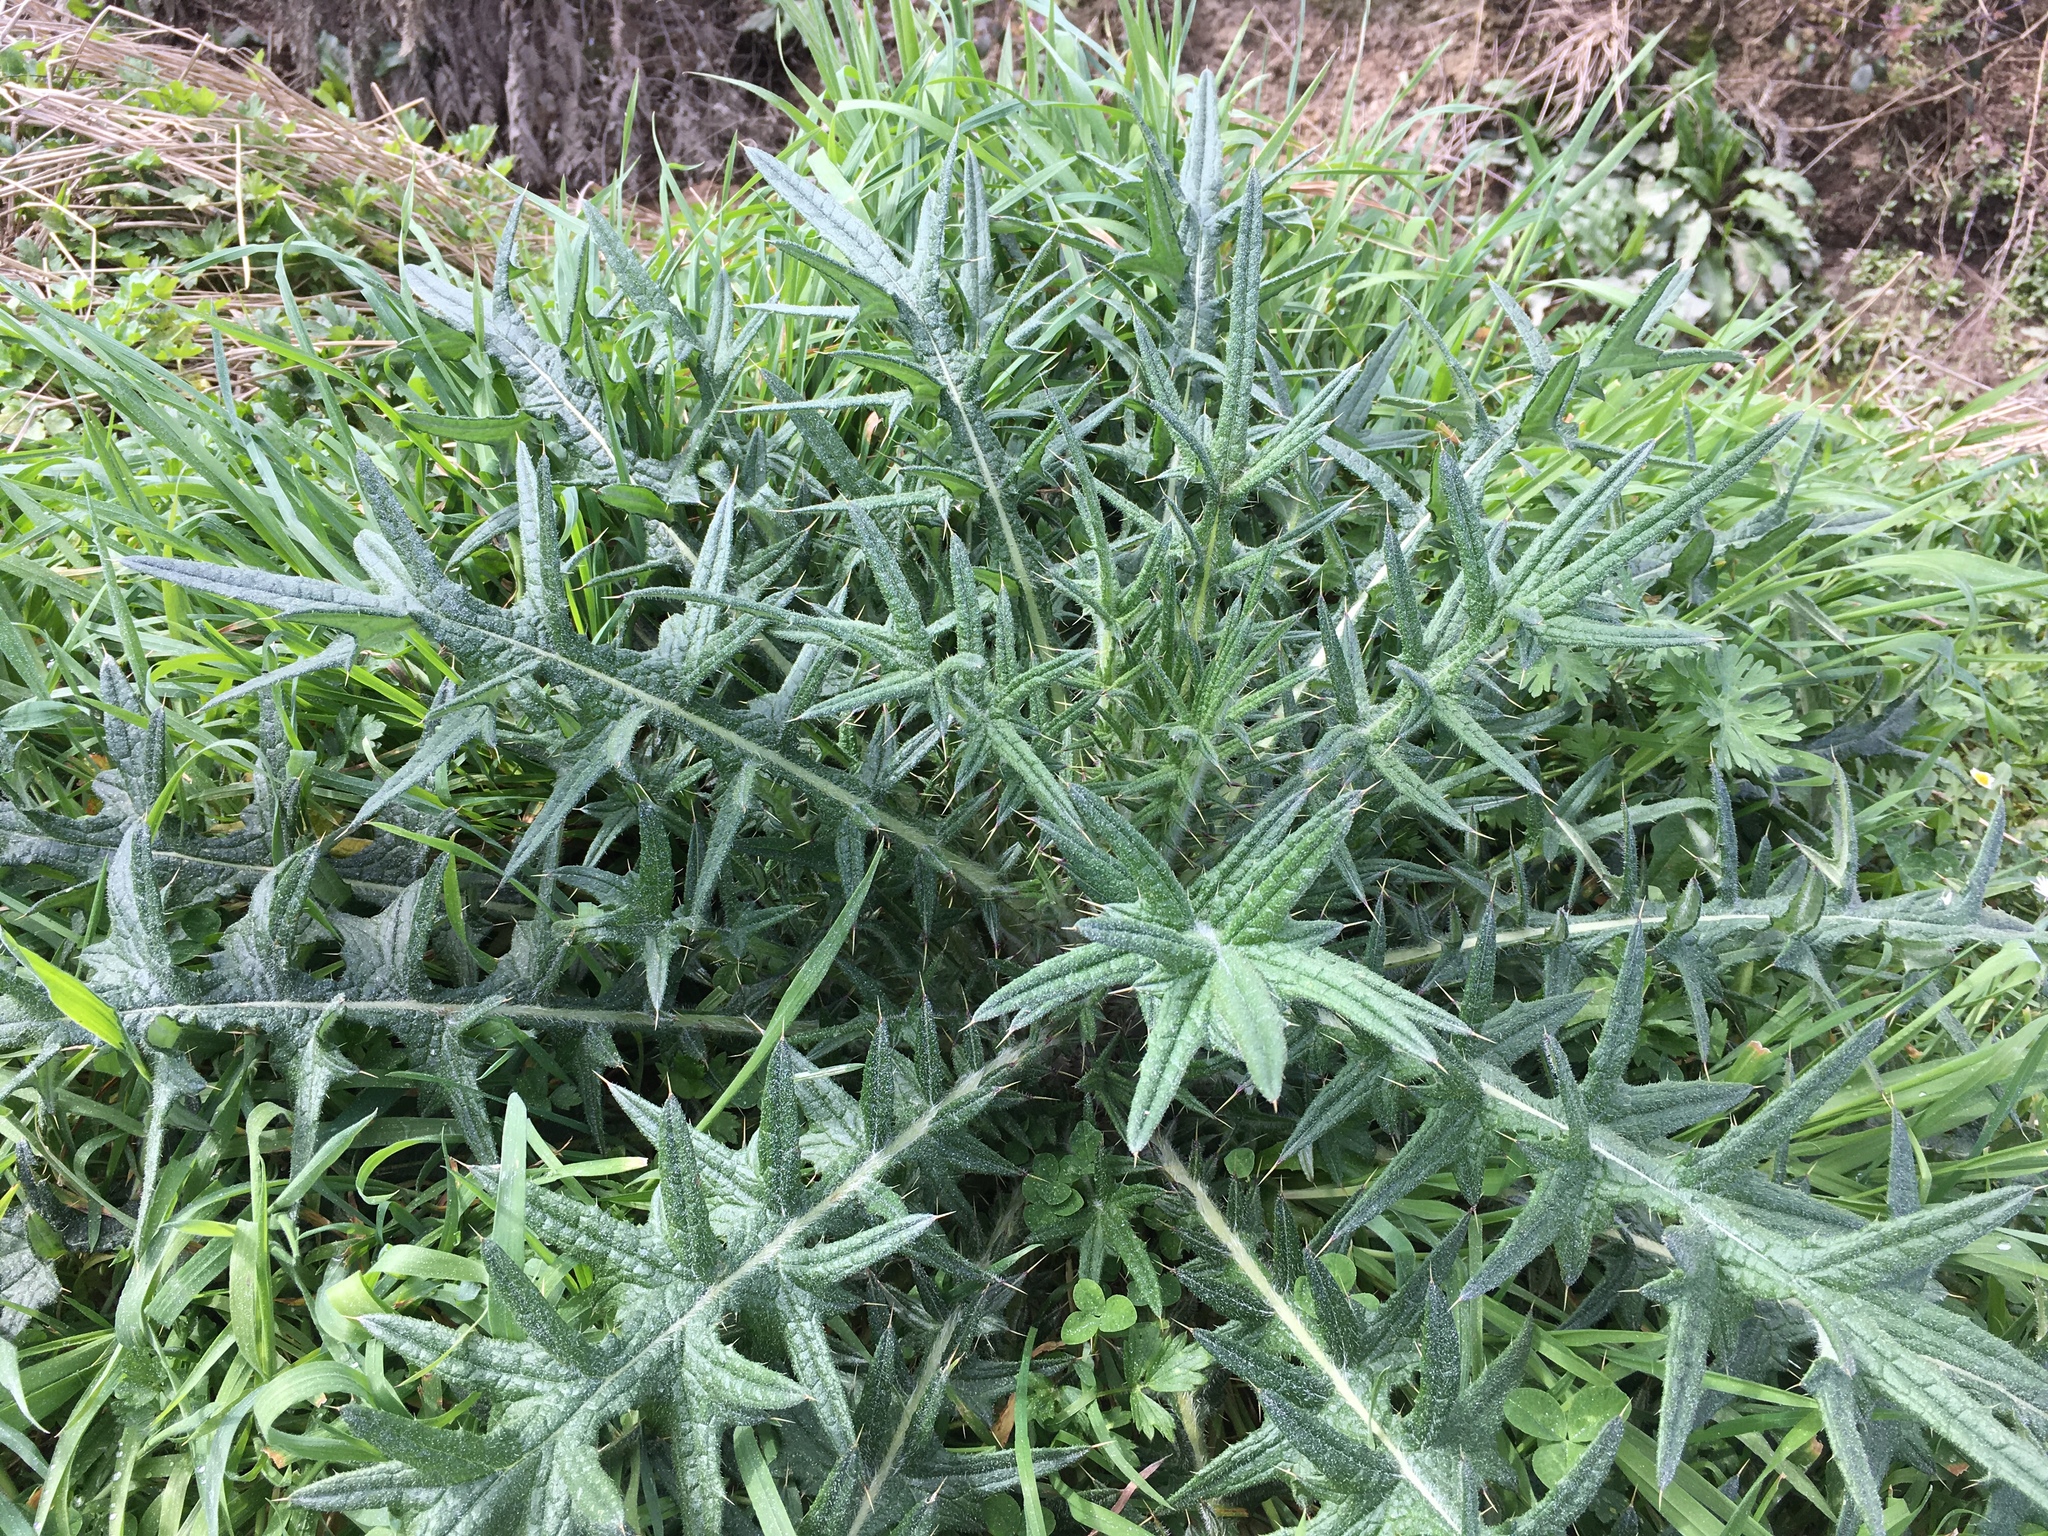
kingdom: Plantae
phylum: Tracheophyta
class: Magnoliopsida
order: Asterales
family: Asteraceae
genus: Cirsium
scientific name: Cirsium vulgare
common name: Bull thistle
